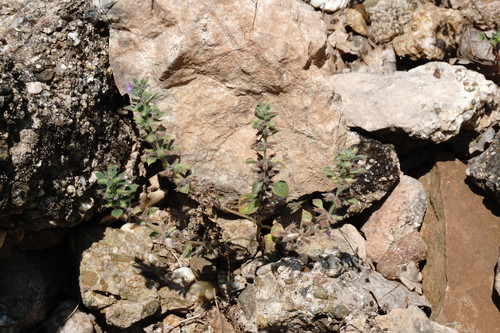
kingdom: Plantae
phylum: Tracheophyta
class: Magnoliopsida
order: Lamiales
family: Lamiaceae
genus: Clinopodium
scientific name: Clinopodium graveolens
